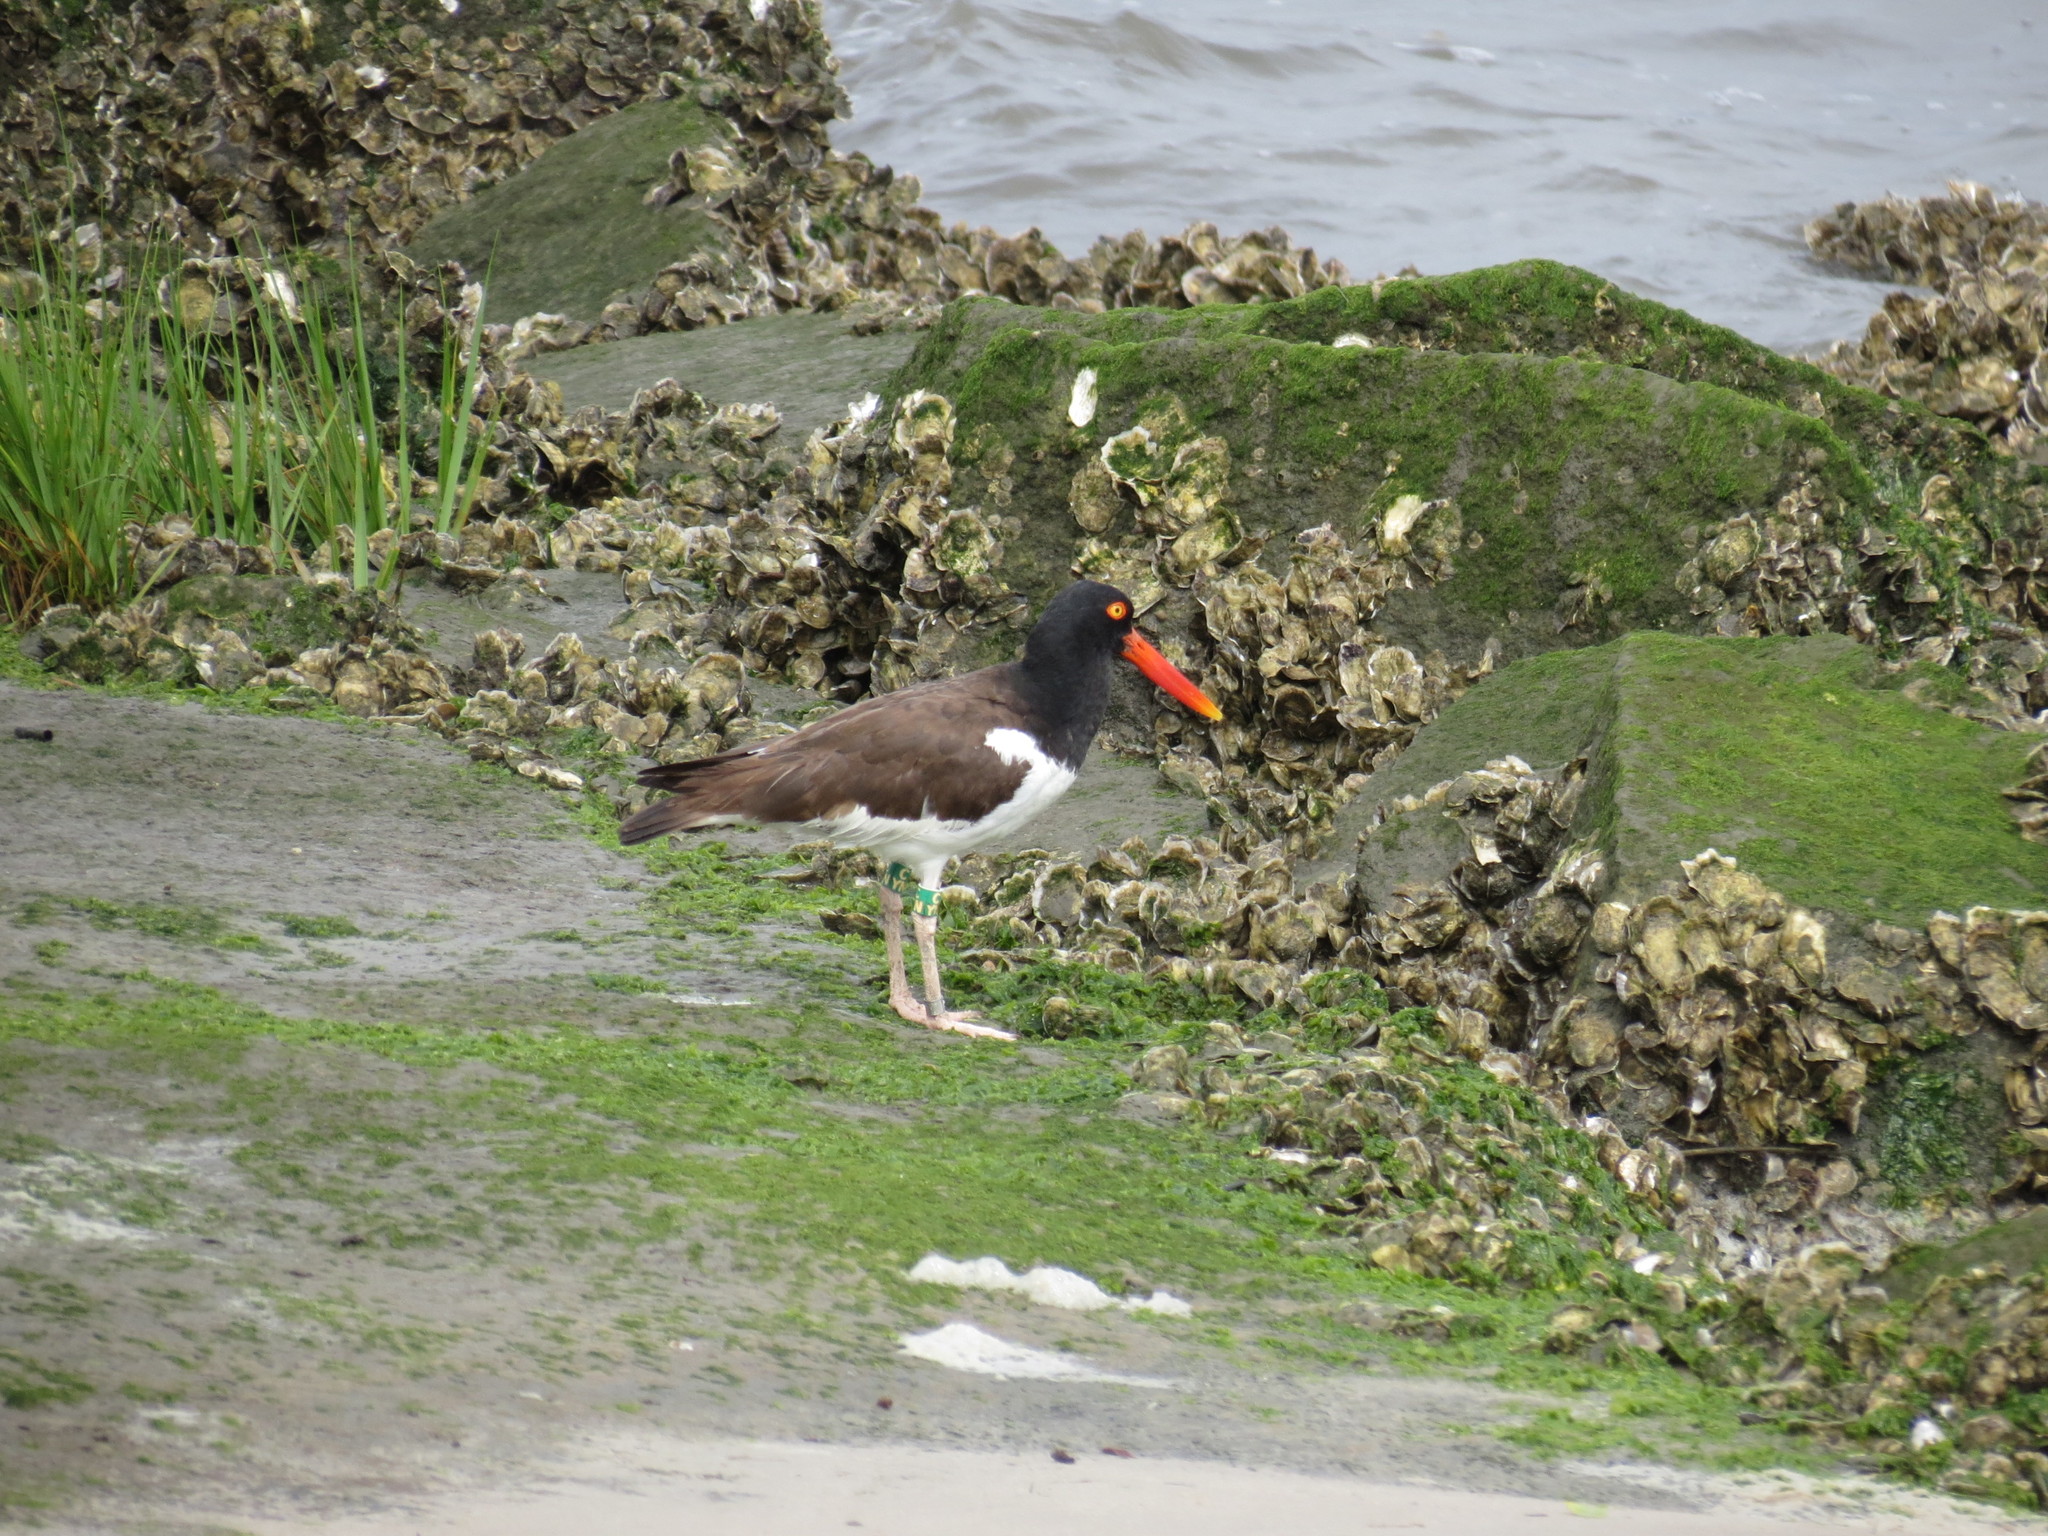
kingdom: Animalia
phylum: Chordata
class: Aves
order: Charadriiformes
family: Haematopodidae
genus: Haematopus
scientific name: Haematopus palliatus
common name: American oystercatcher
